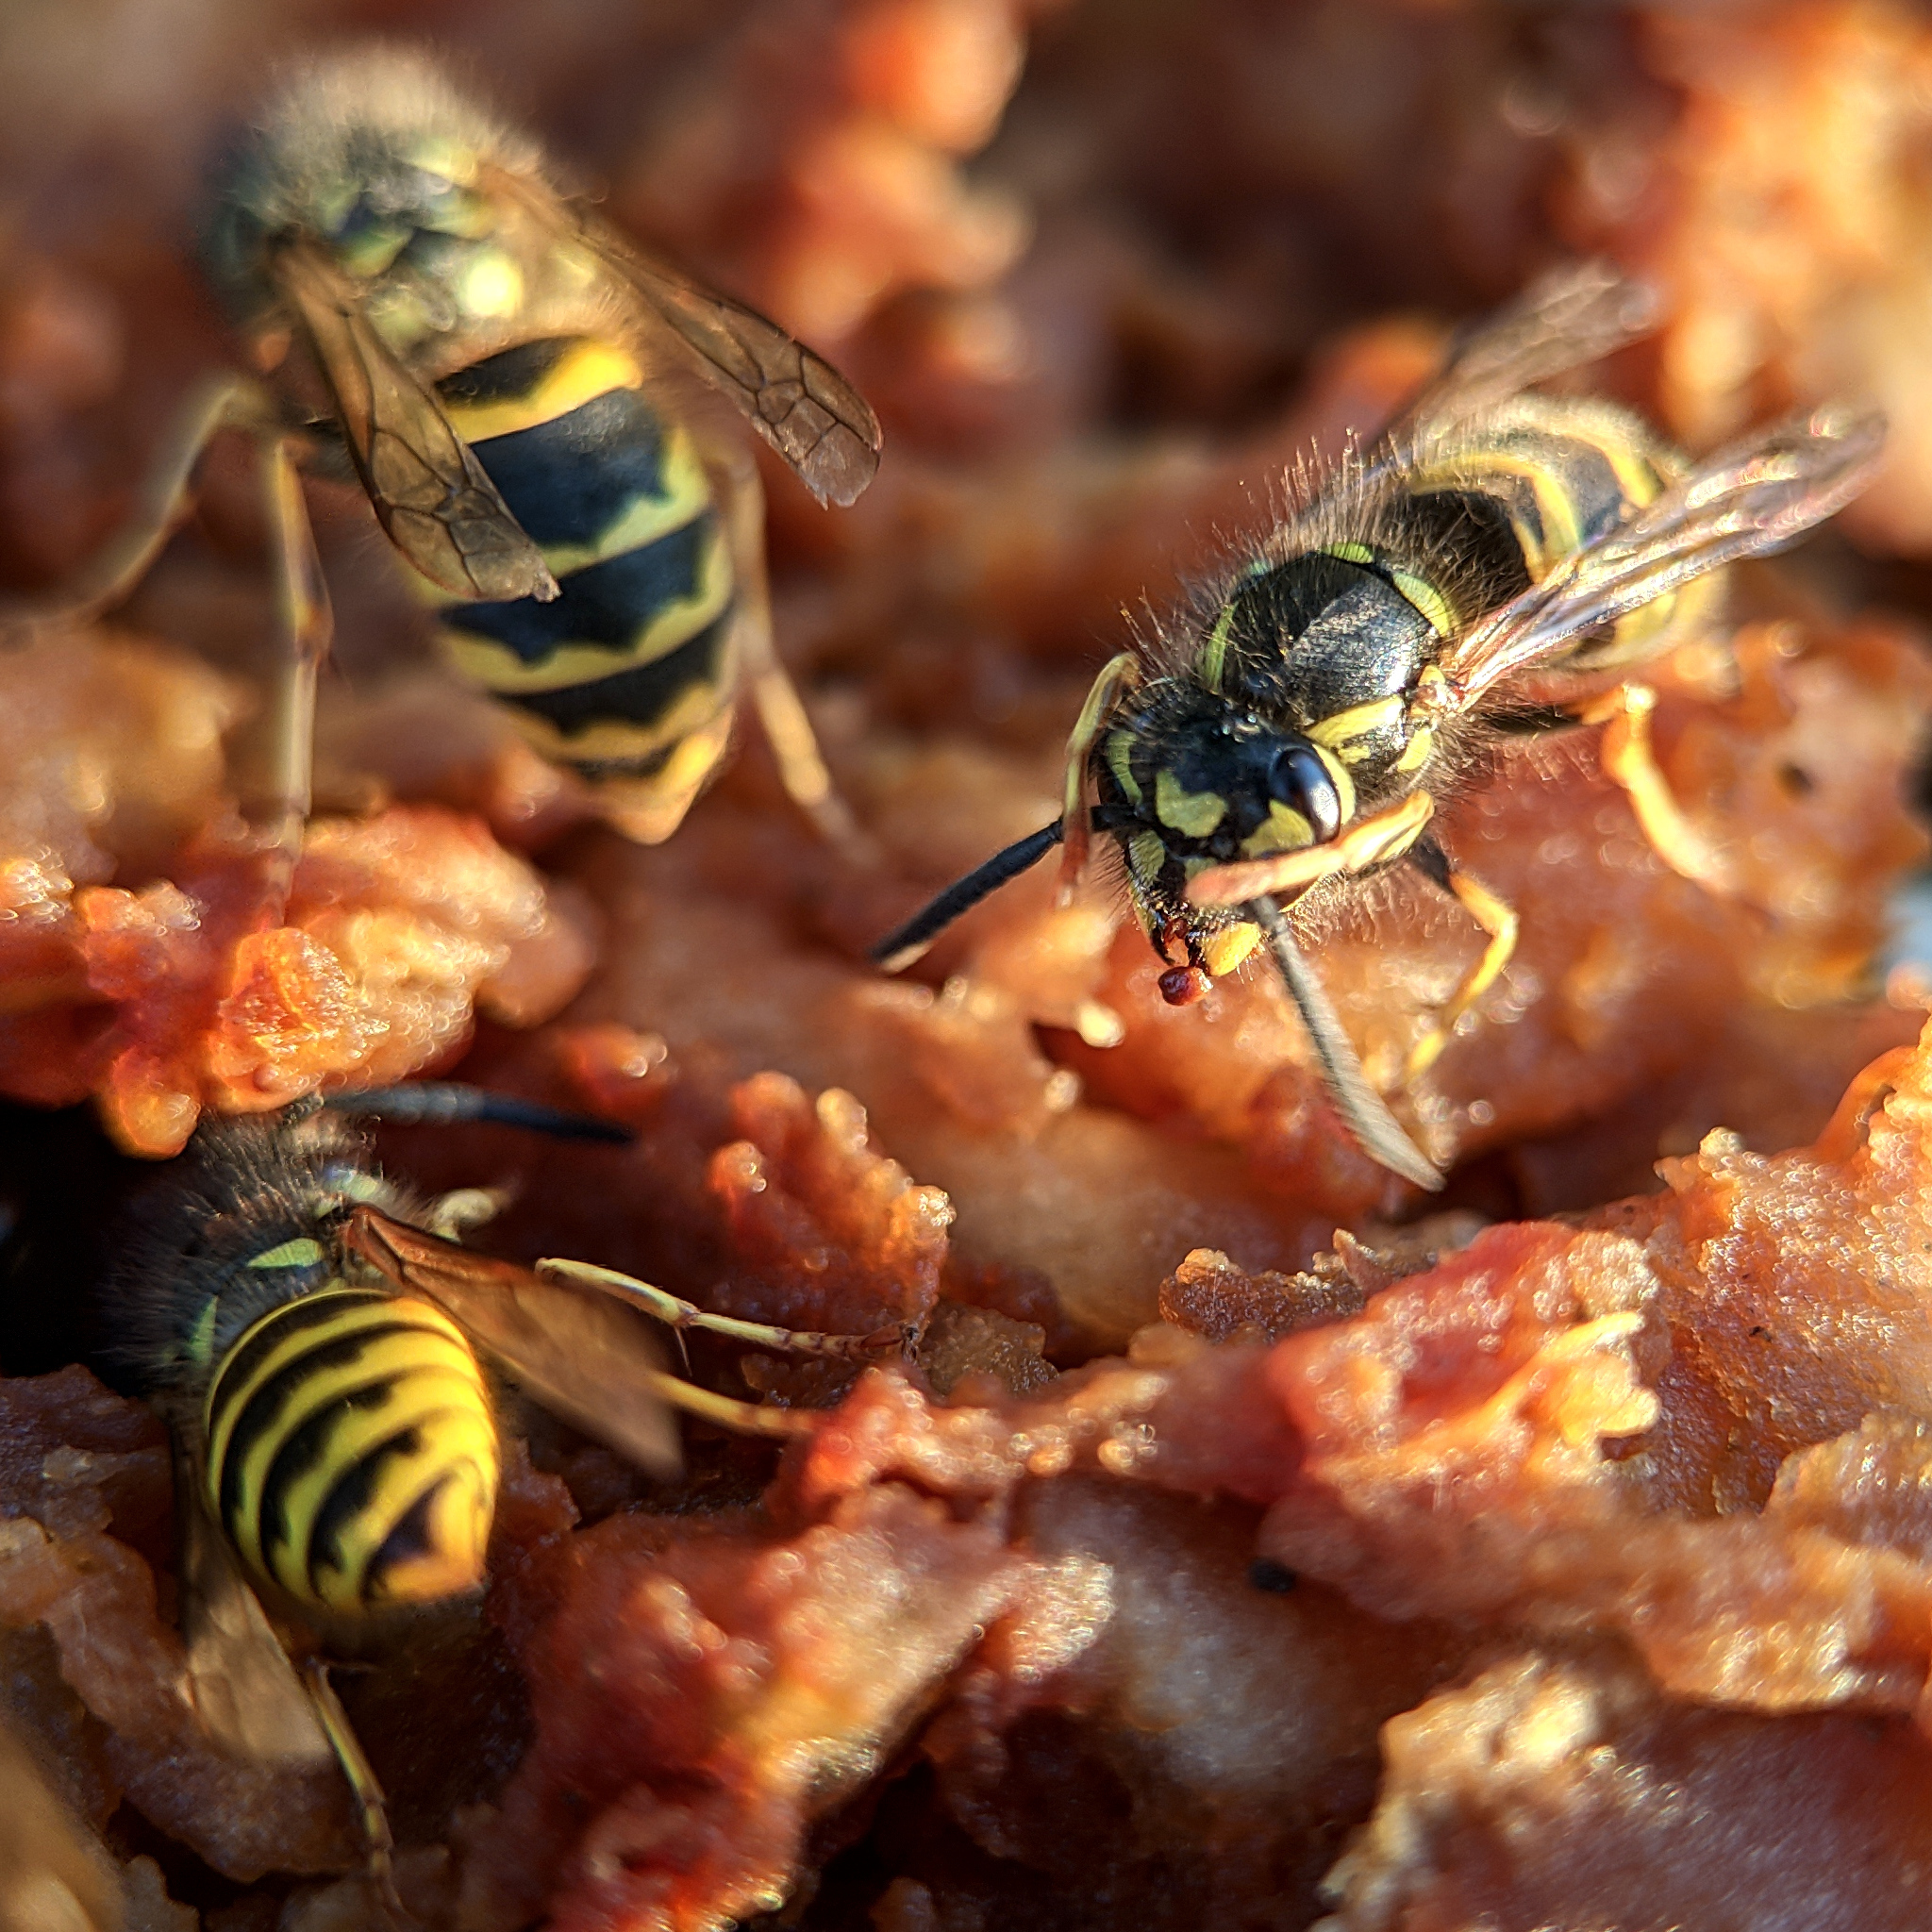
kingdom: Animalia
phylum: Arthropoda
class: Insecta
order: Hymenoptera
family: Vespidae
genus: Vespula
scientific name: Vespula vulgaris
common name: Common wasp
